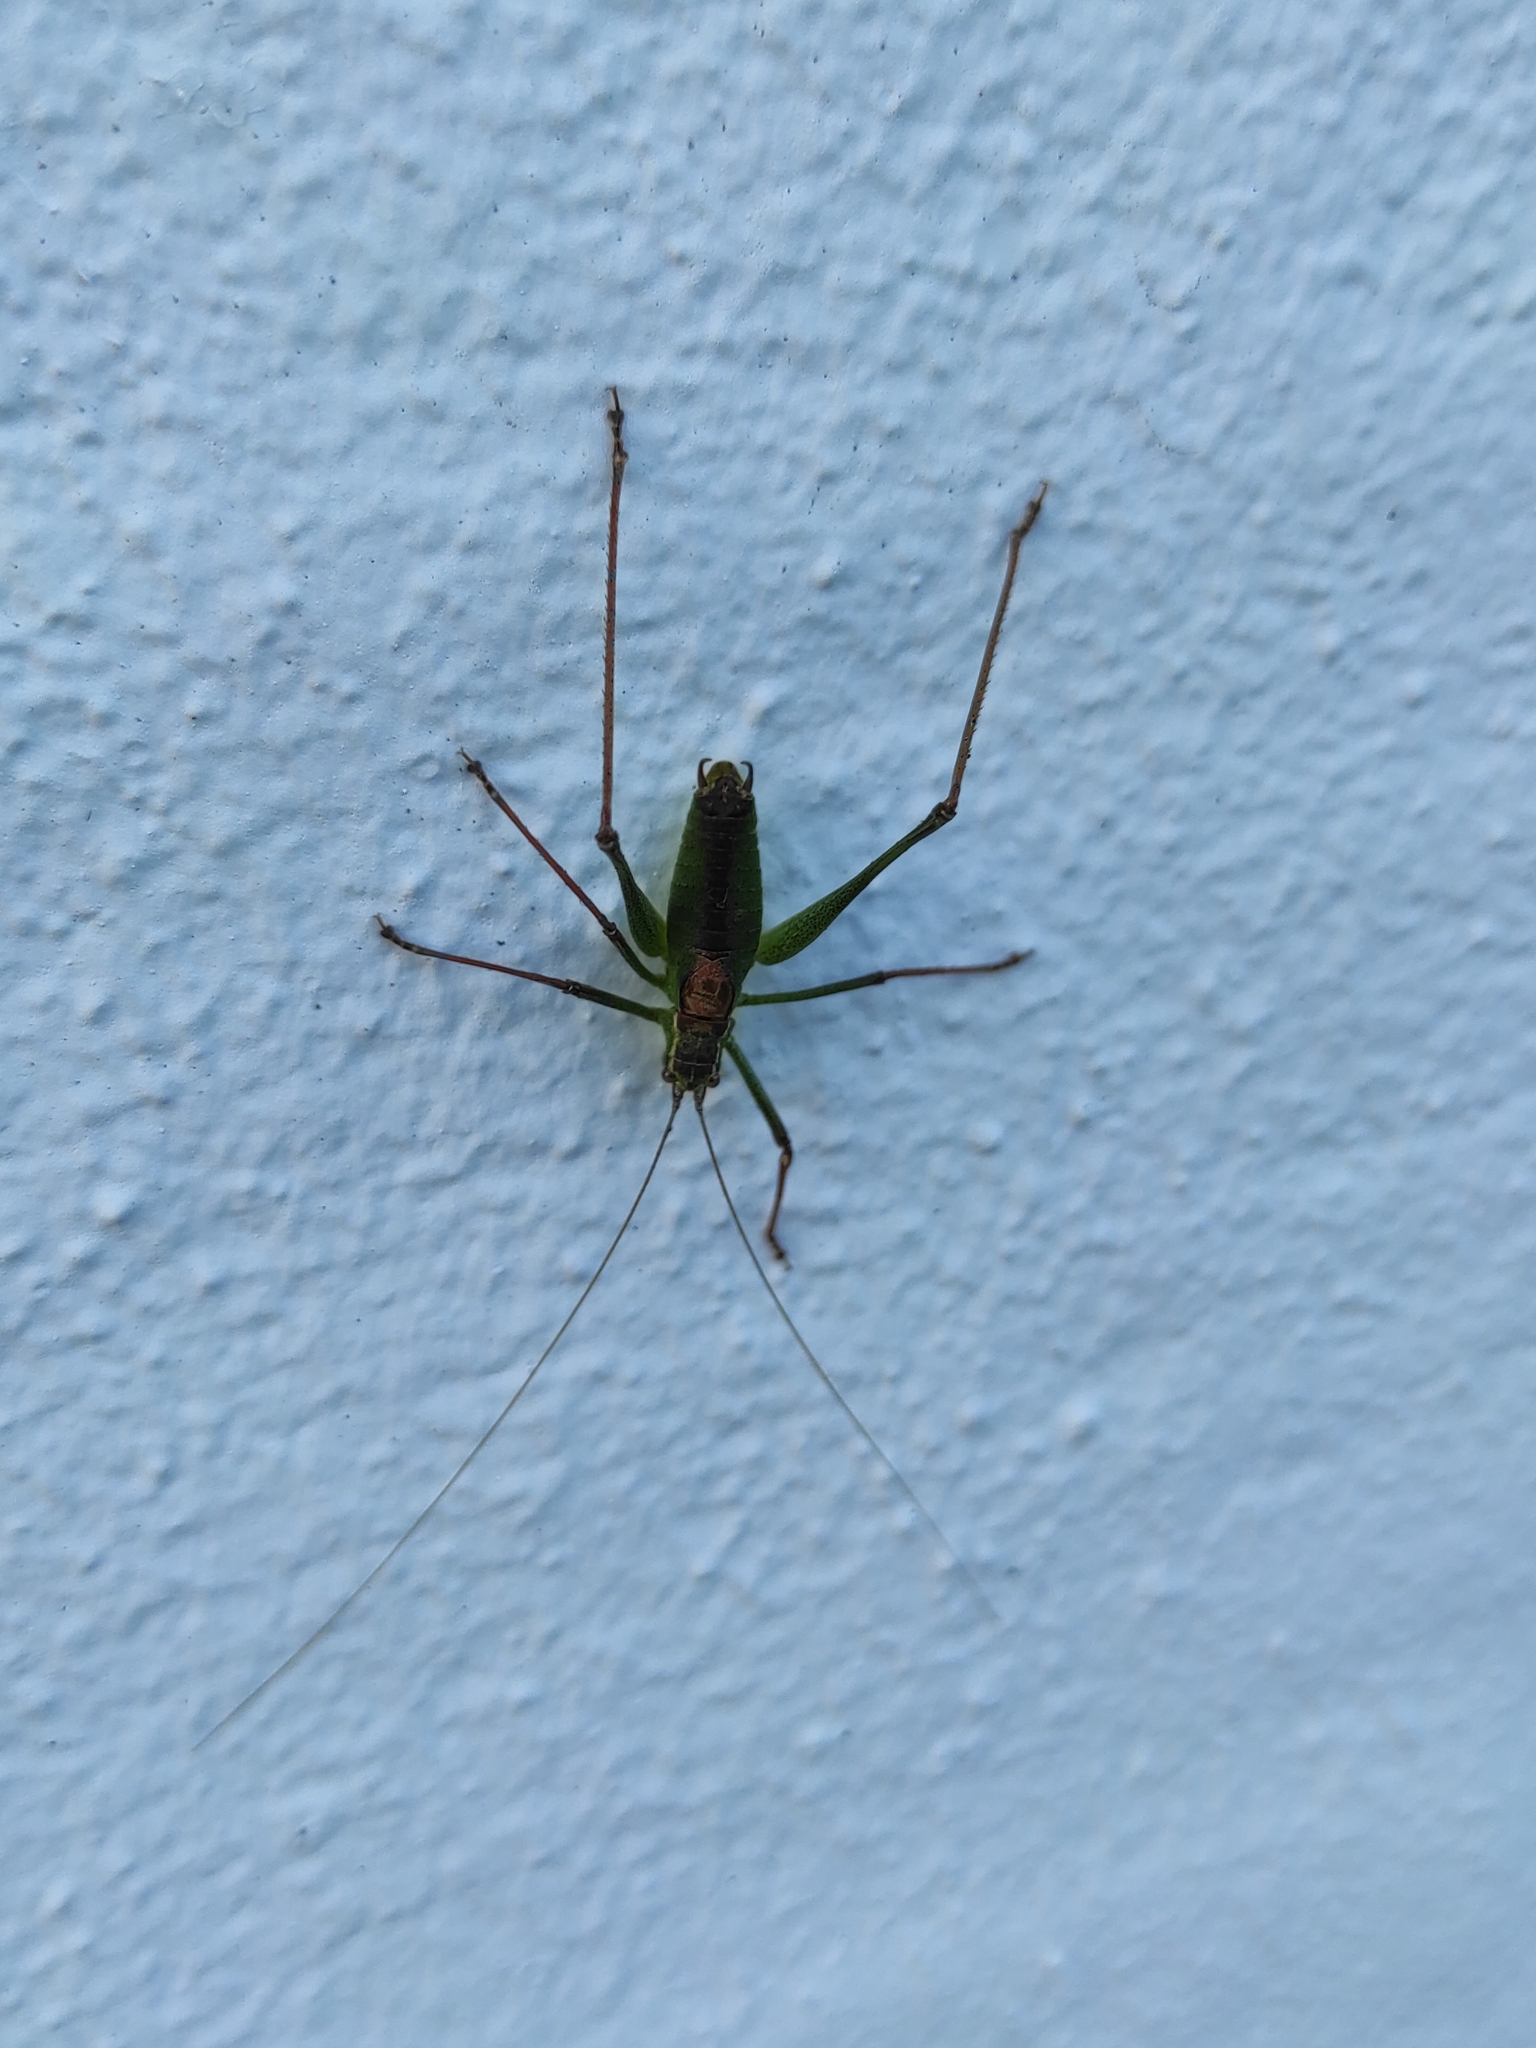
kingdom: Animalia
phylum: Arthropoda
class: Insecta
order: Orthoptera
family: Tettigoniidae
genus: Leptophyes
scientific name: Leptophyes punctatissima
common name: Speckled bush-cricket
